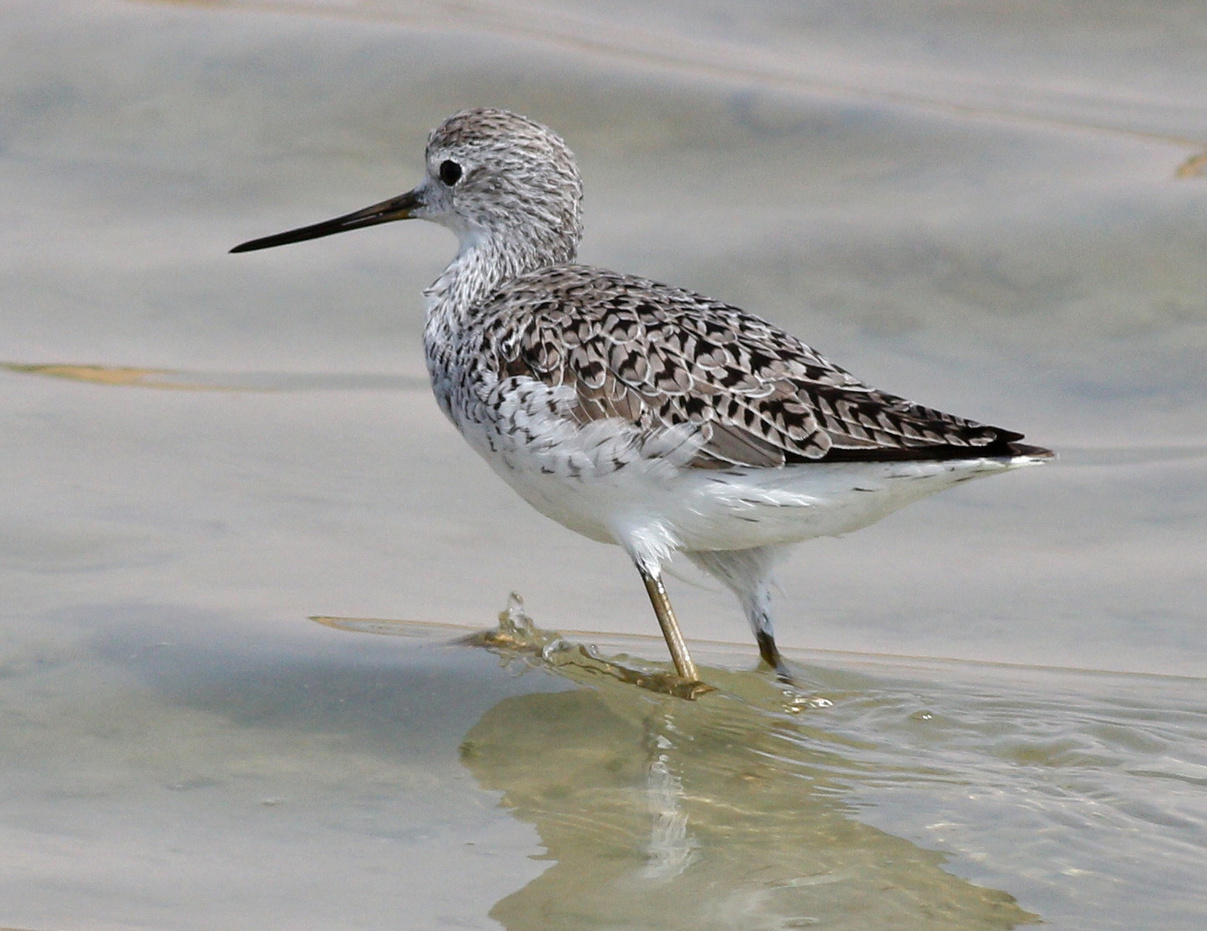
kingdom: Animalia
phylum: Chordata
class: Aves
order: Charadriiformes
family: Scolopacidae
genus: Tringa
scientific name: Tringa stagnatilis
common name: Marsh sandpiper
